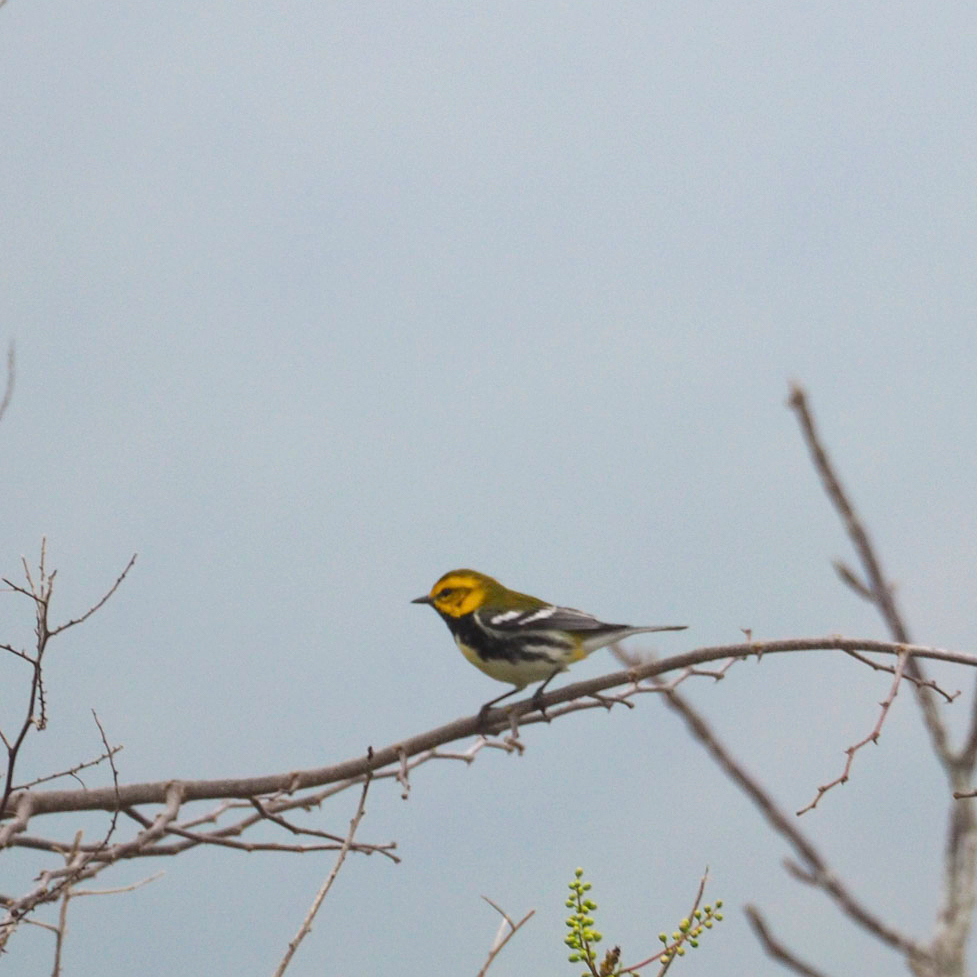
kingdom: Animalia
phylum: Chordata
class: Aves
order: Passeriformes
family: Parulidae
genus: Setophaga
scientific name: Setophaga virens
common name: Black-throated green warbler
